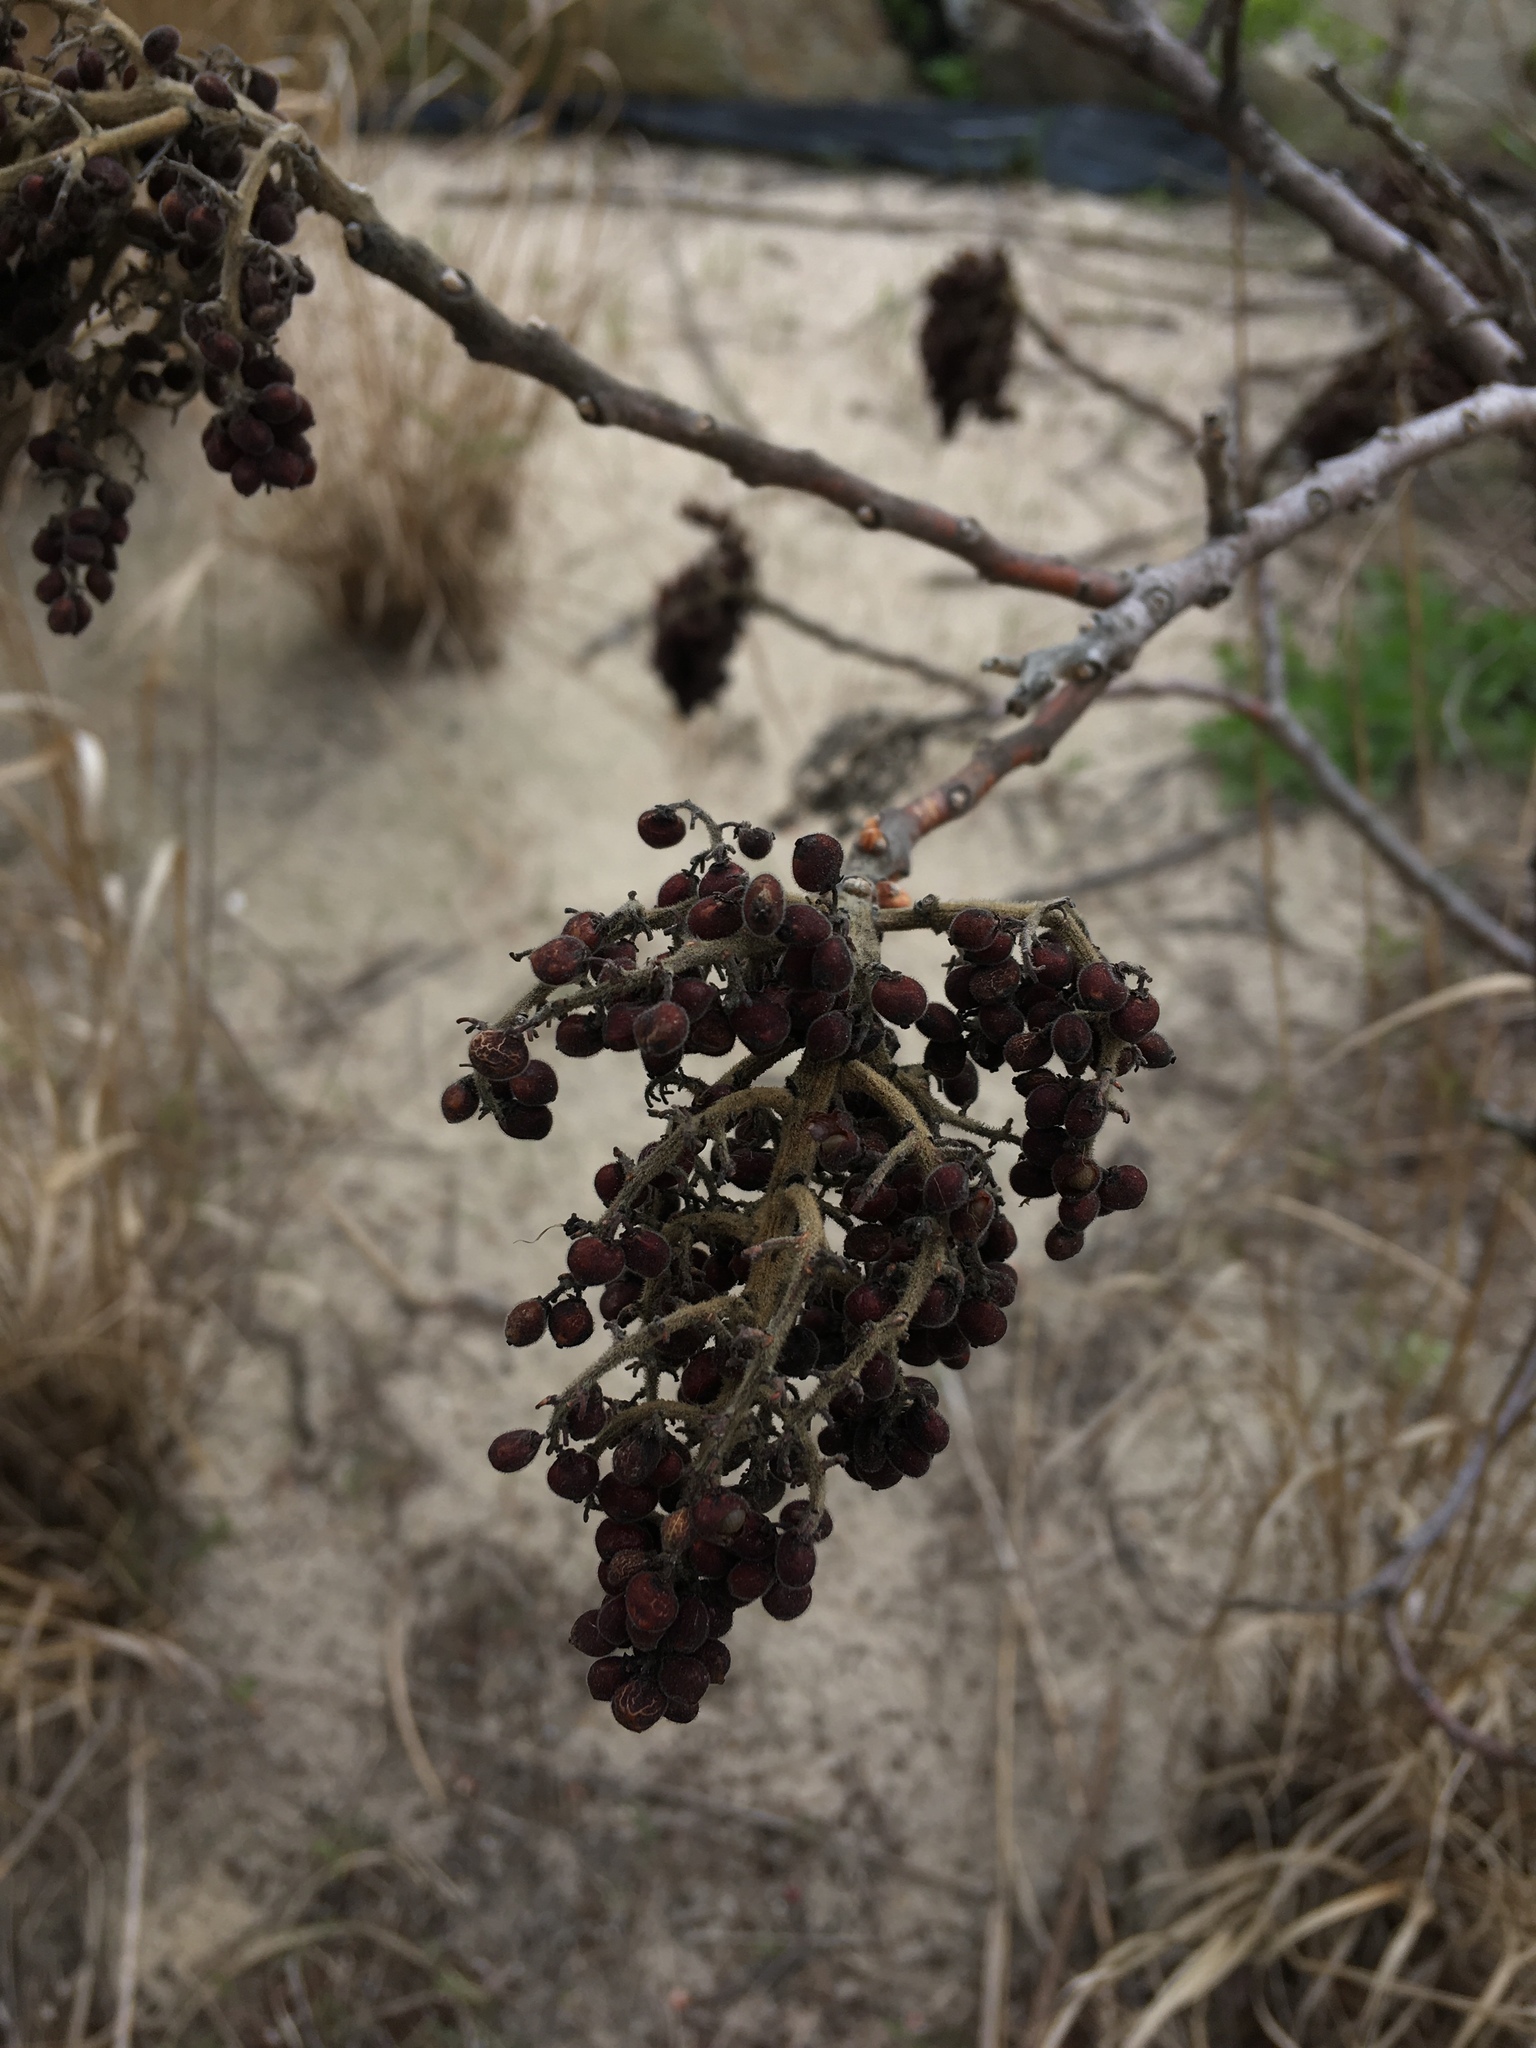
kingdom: Plantae
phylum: Tracheophyta
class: Magnoliopsida
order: Sapindales
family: Anacardiaceae
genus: Rhus
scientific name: Rhus copallina
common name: Shining sumac
